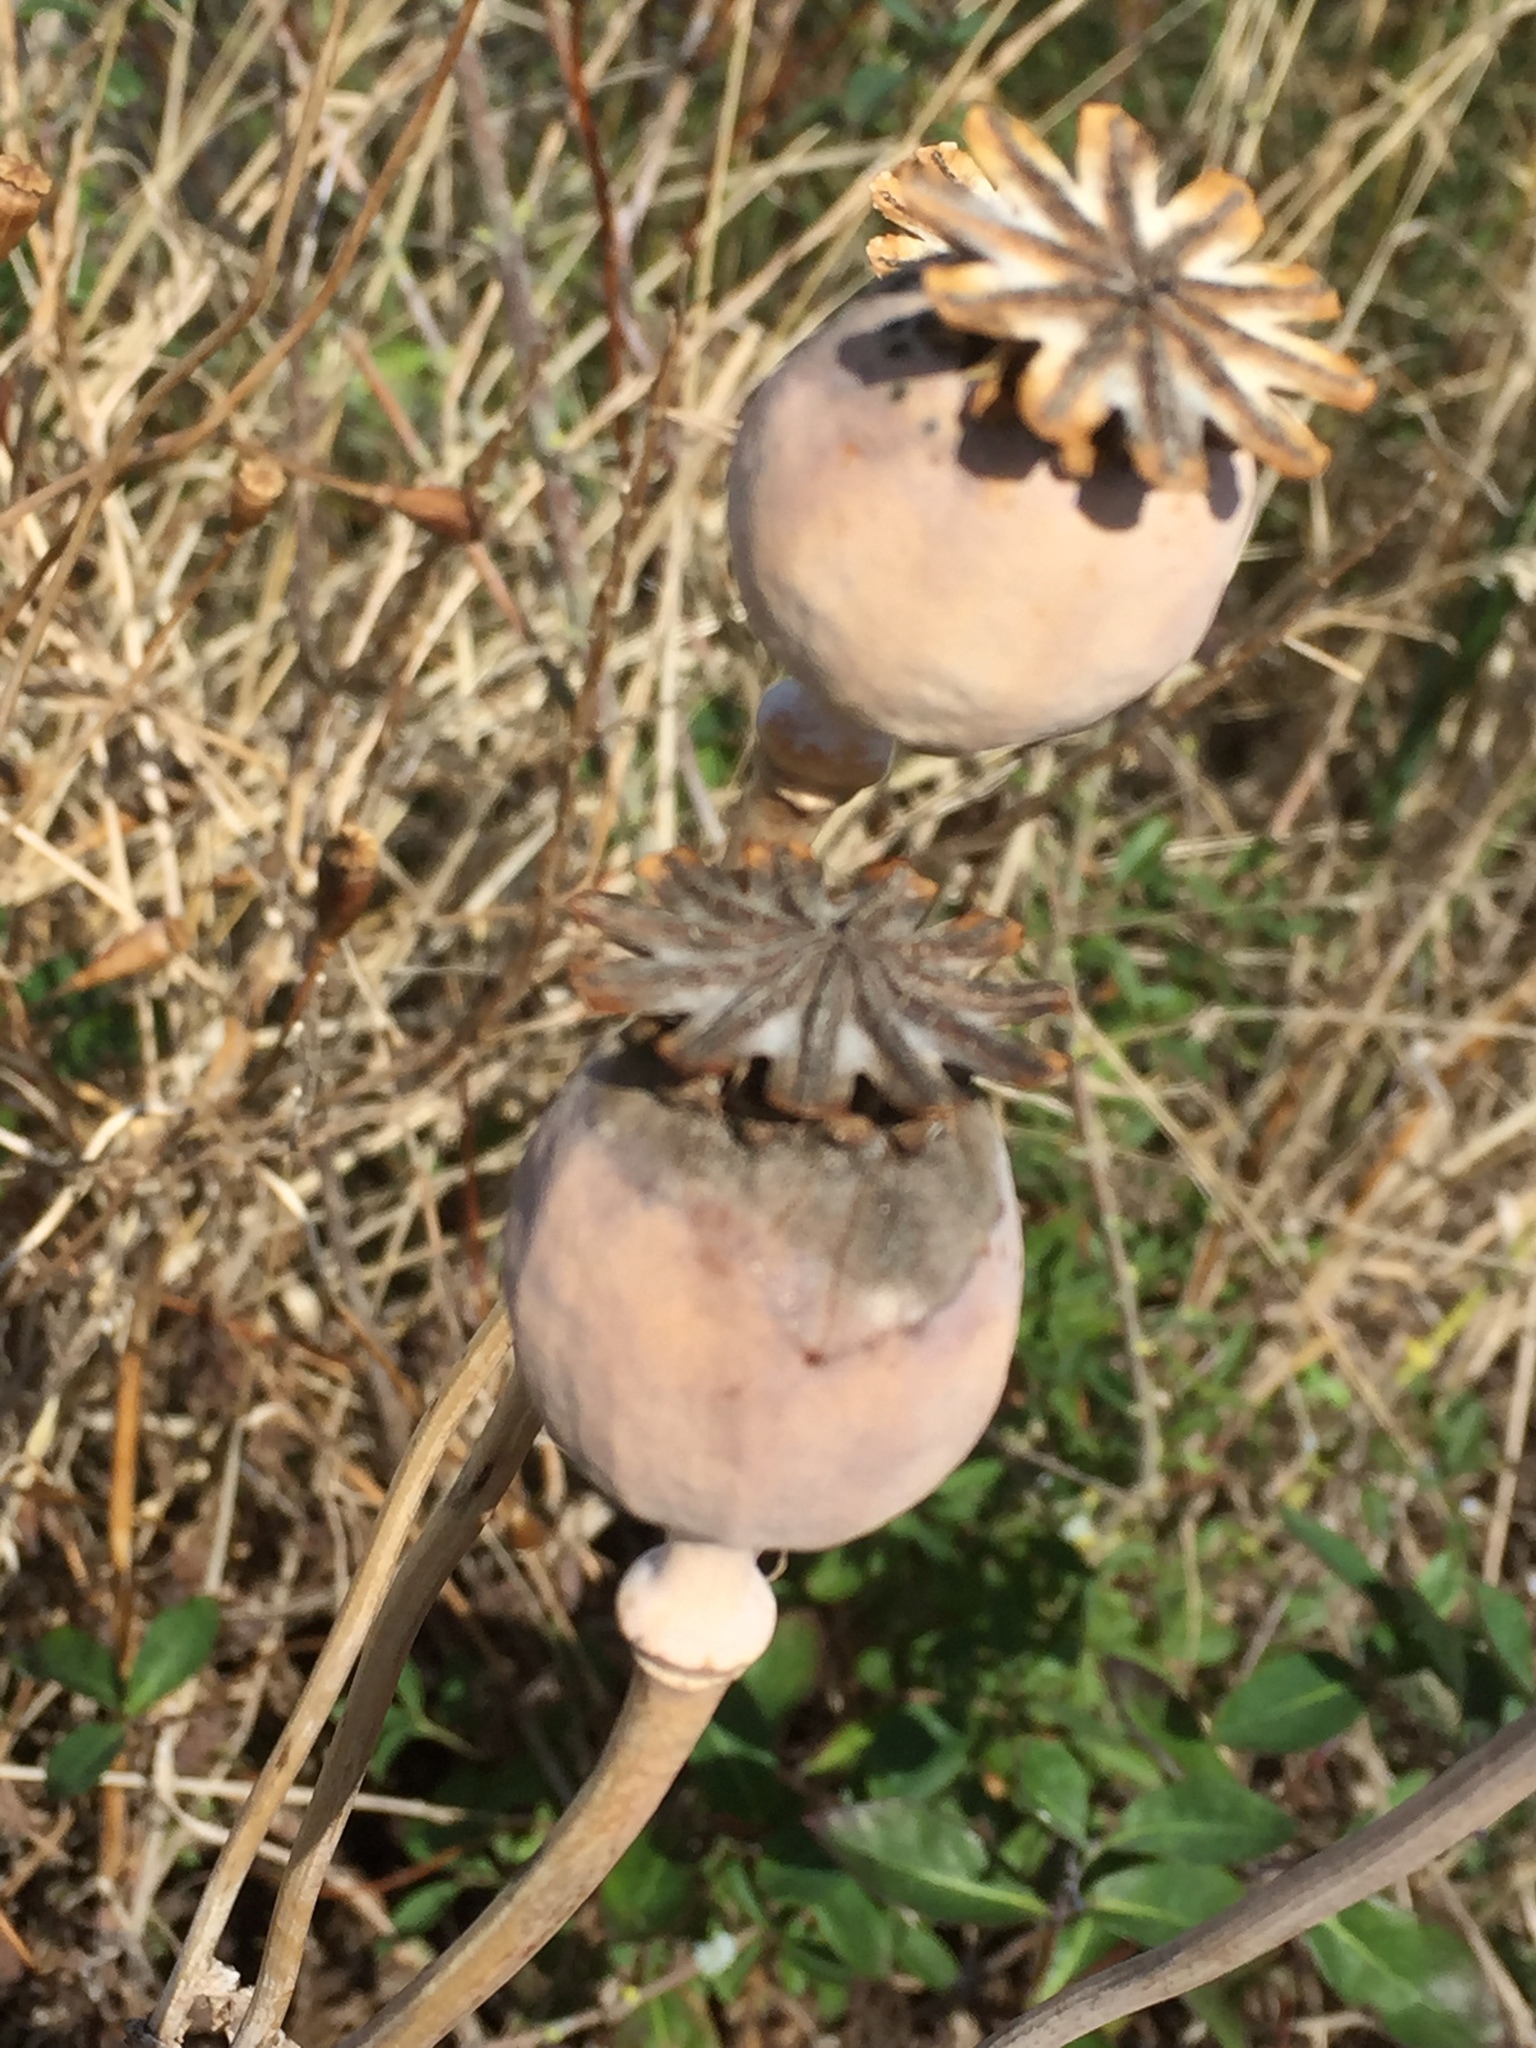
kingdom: Plantae
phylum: Tracheophyta
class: Magnoliopsida
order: Ranunculales
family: Papaveraceae
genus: Papaver
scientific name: Papaver somniferum
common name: Opium poppy
